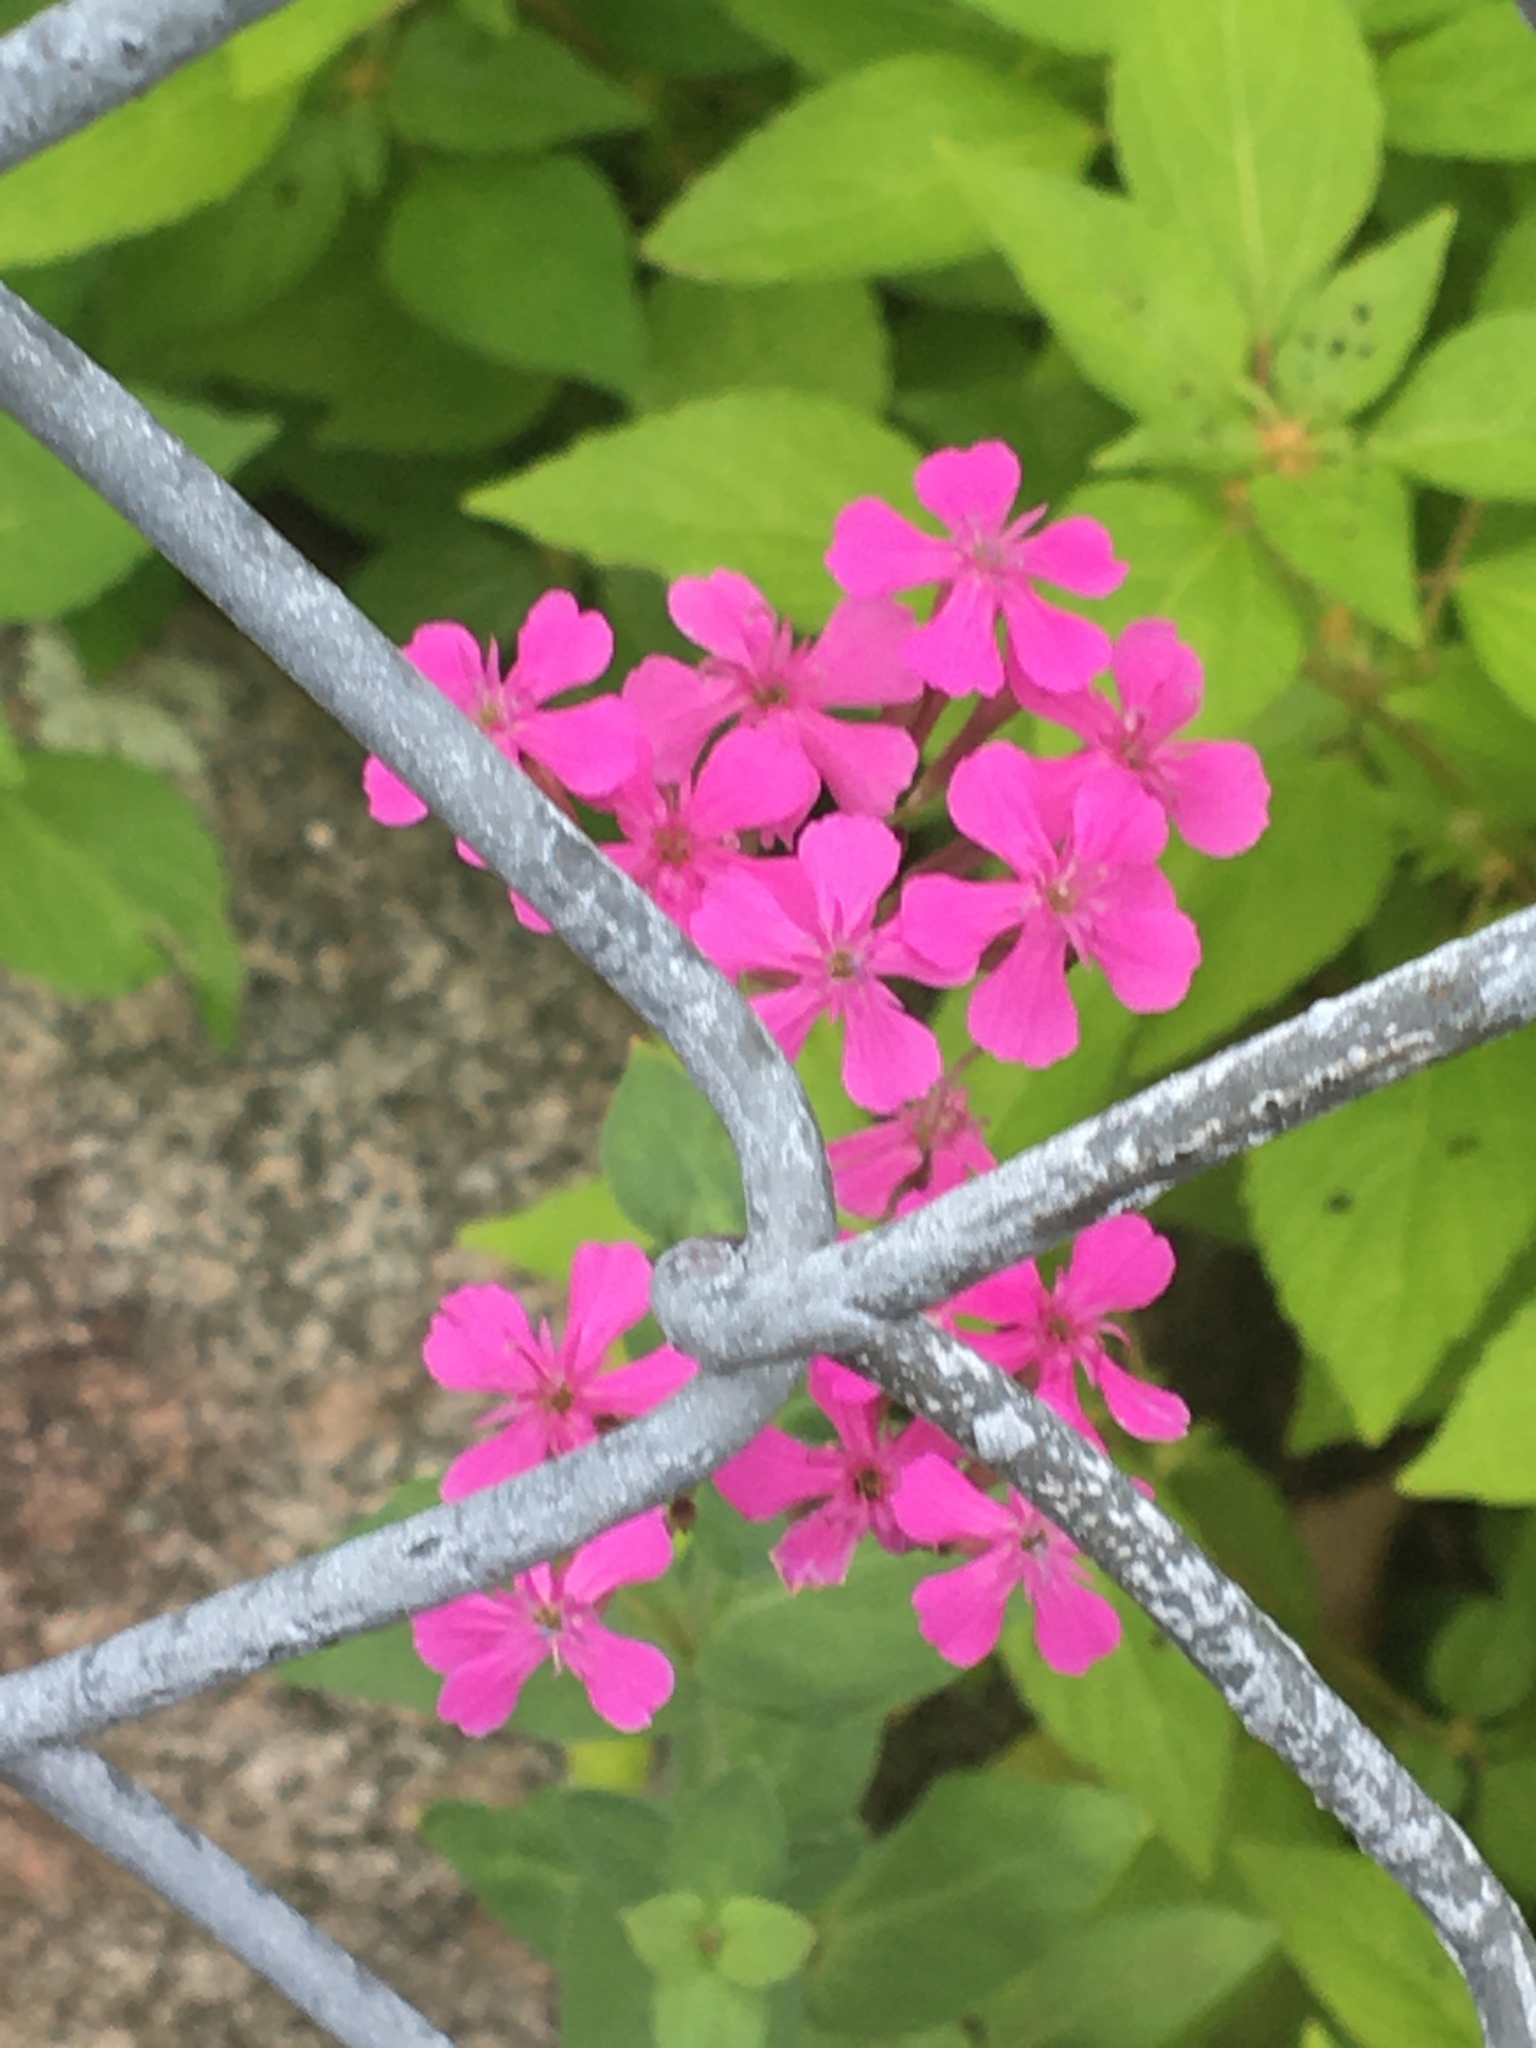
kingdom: Plantae
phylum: Tracheophyta
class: Magnoliopsida
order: Caryophyllales
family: Caryophyllaceae
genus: Atocion
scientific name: Atocion armeria
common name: Sweet william catchfly
